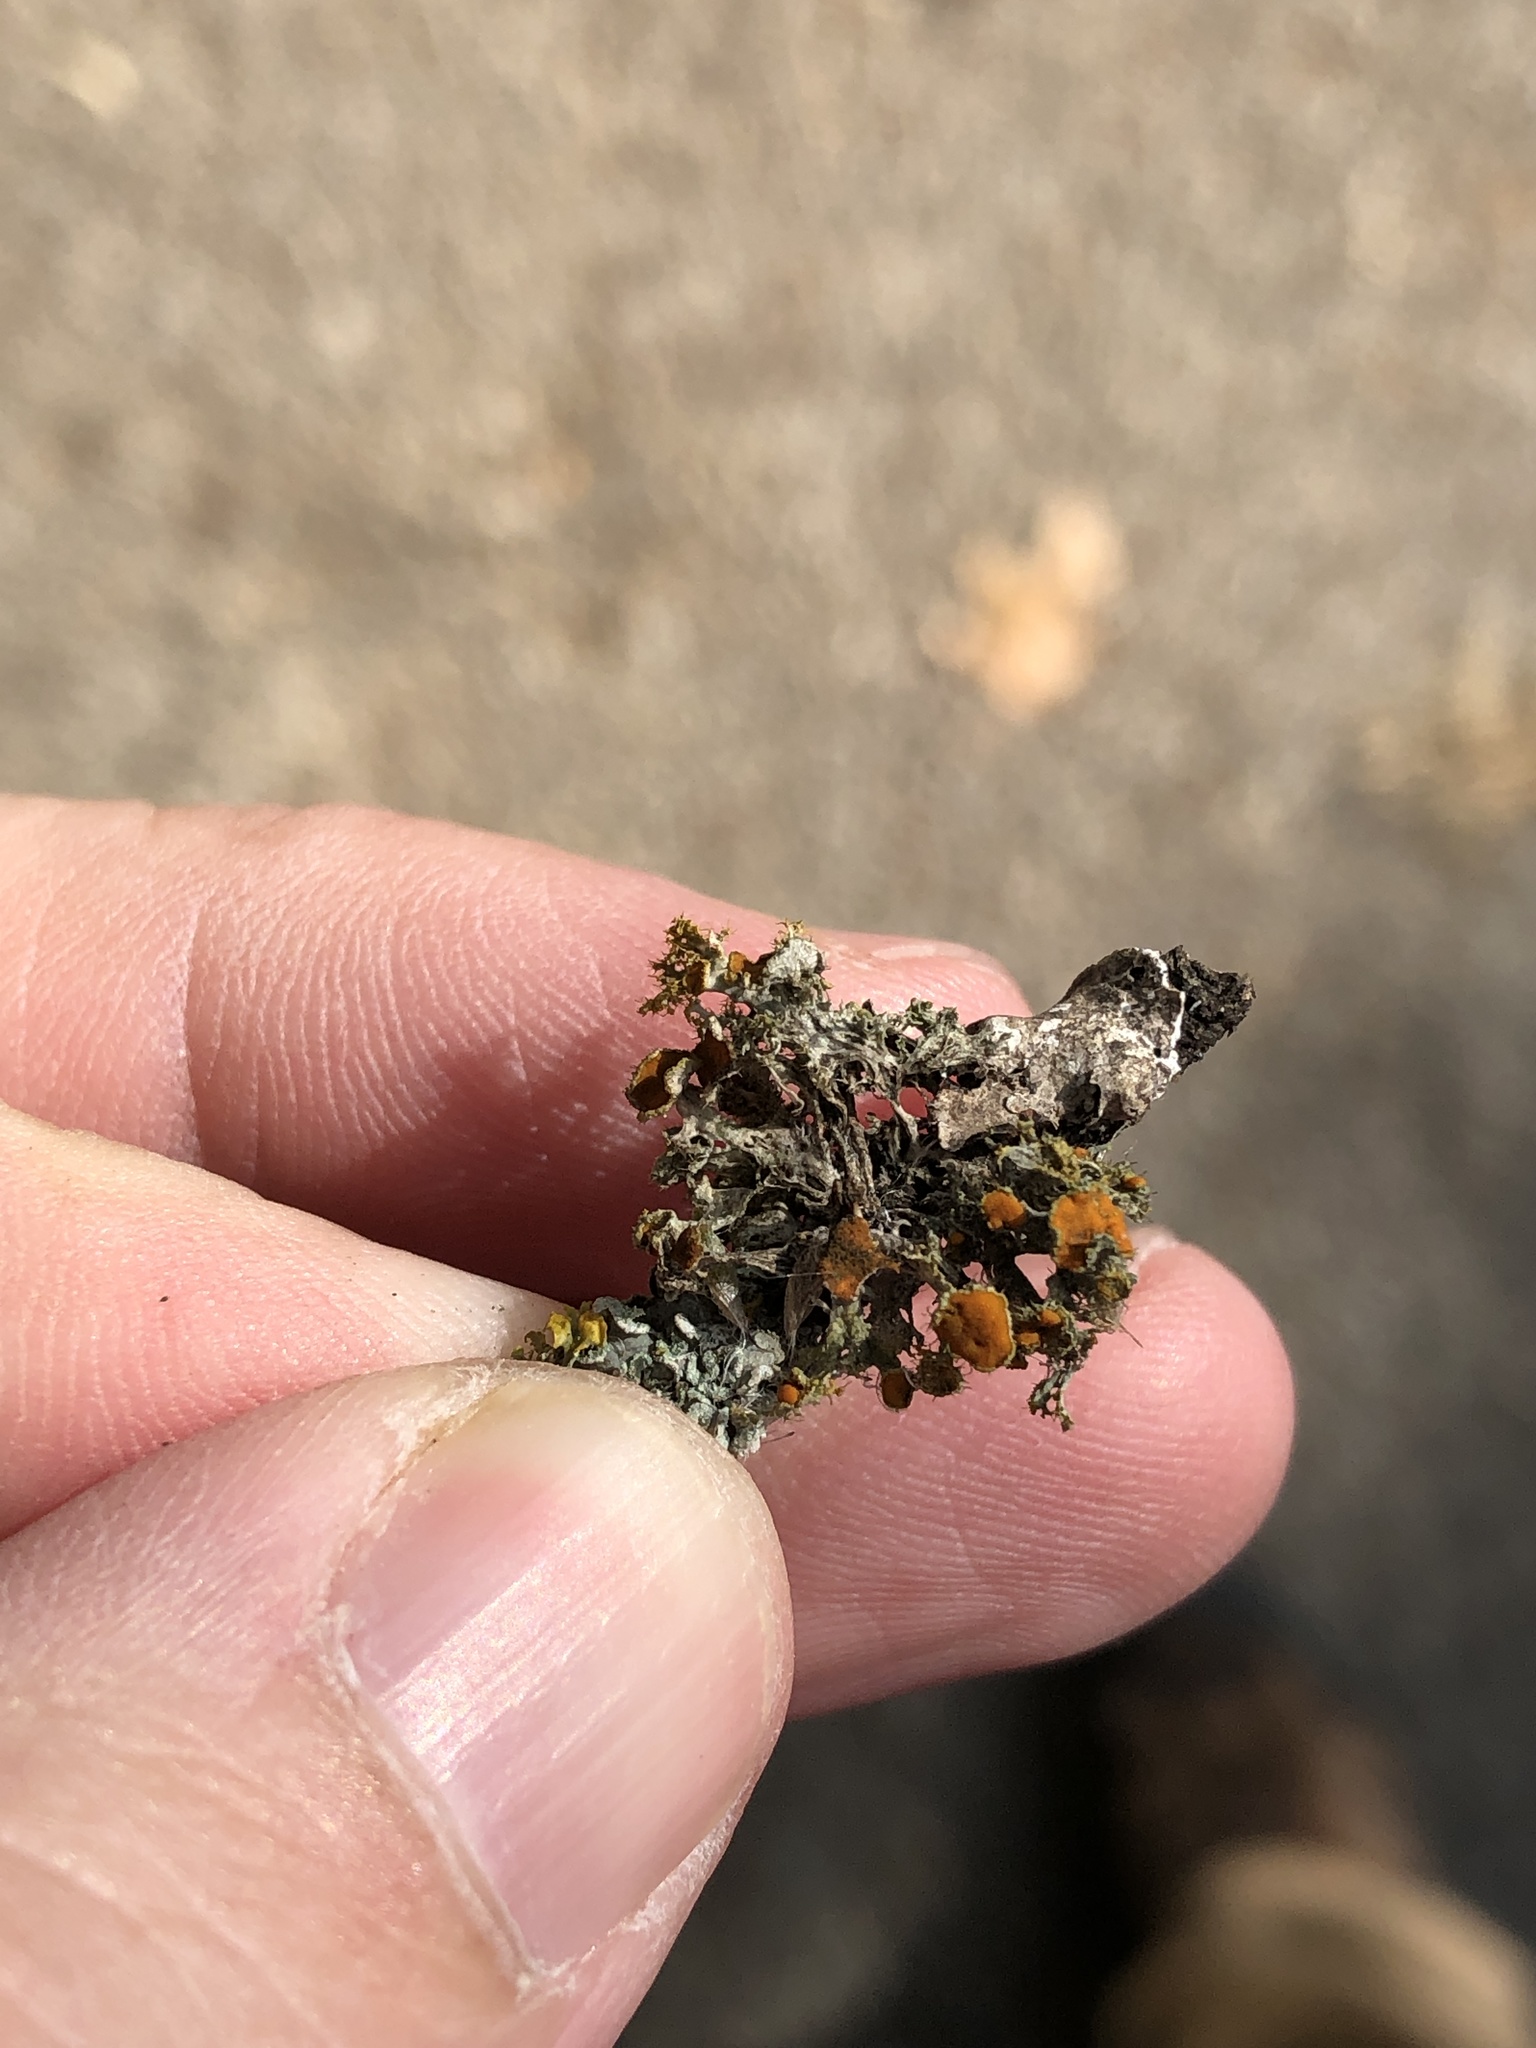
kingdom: Fungi
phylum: Ascomycota
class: Lecanoromycetes
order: Teloschistales
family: Teloschistaceae
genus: Niorma
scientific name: Niorma chrysophthalma
